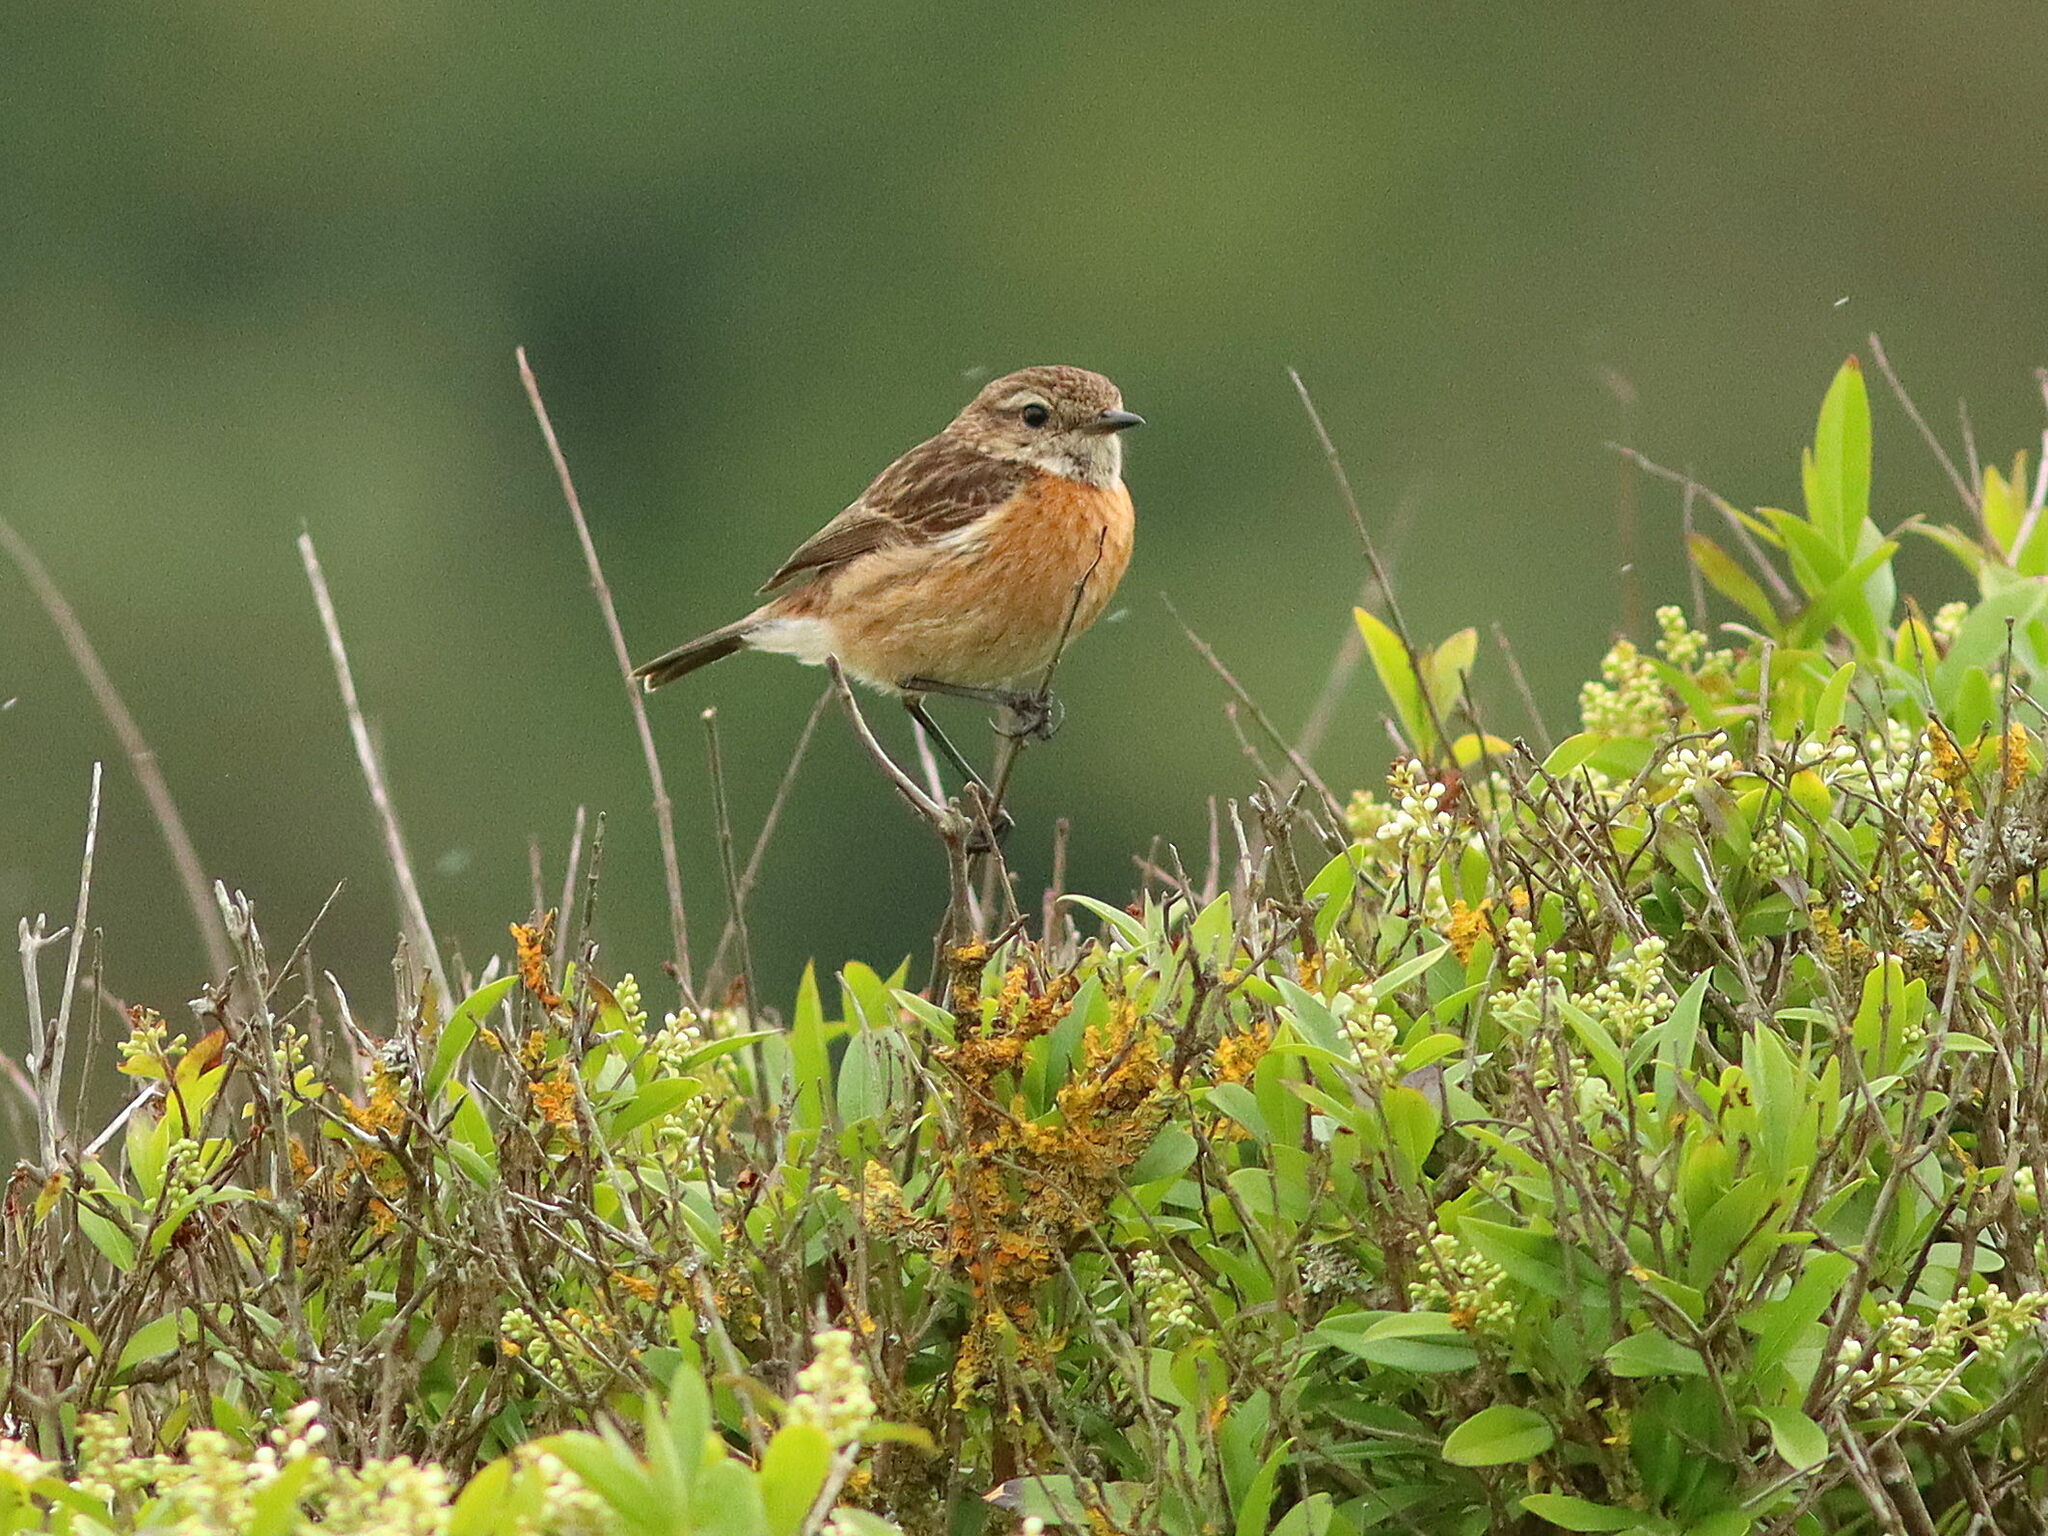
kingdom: Animalia
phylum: Chordata
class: Aves
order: Passeriformes
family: Muscicapidae
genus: Saxicola
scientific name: Saxicola rubicola
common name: European stonechat
